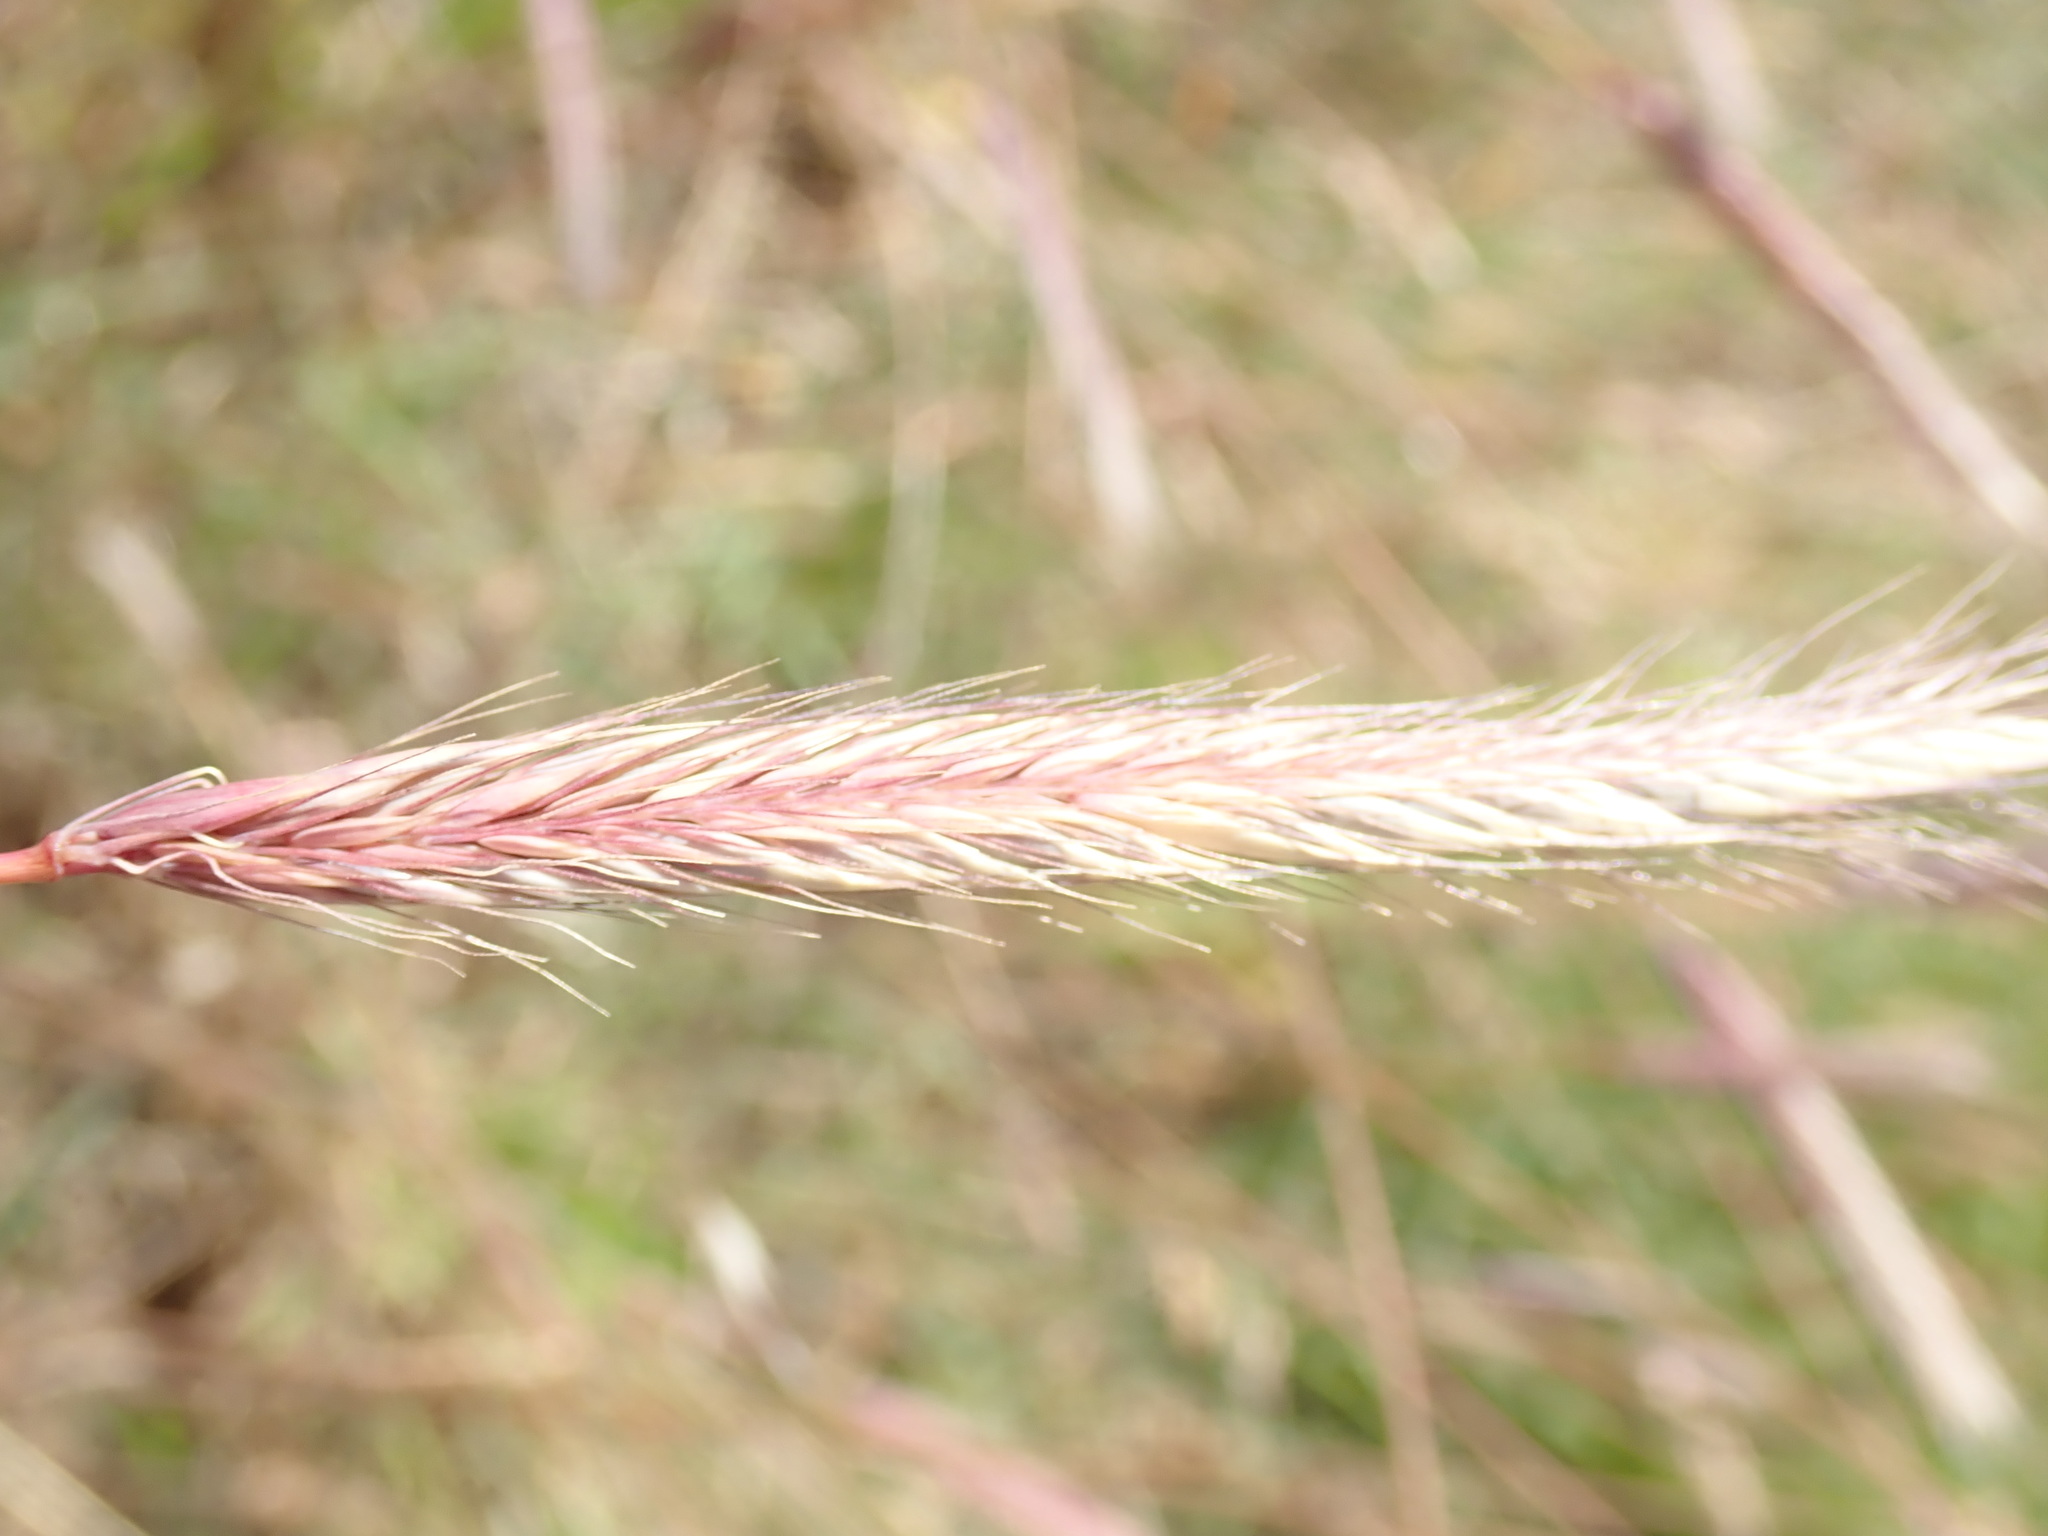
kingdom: Plantae
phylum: Tracheophyta
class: Liliopsida
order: Poales
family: Poaceae
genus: Hordeum
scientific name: Hordeum brachyantherum
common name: Meadow barley
